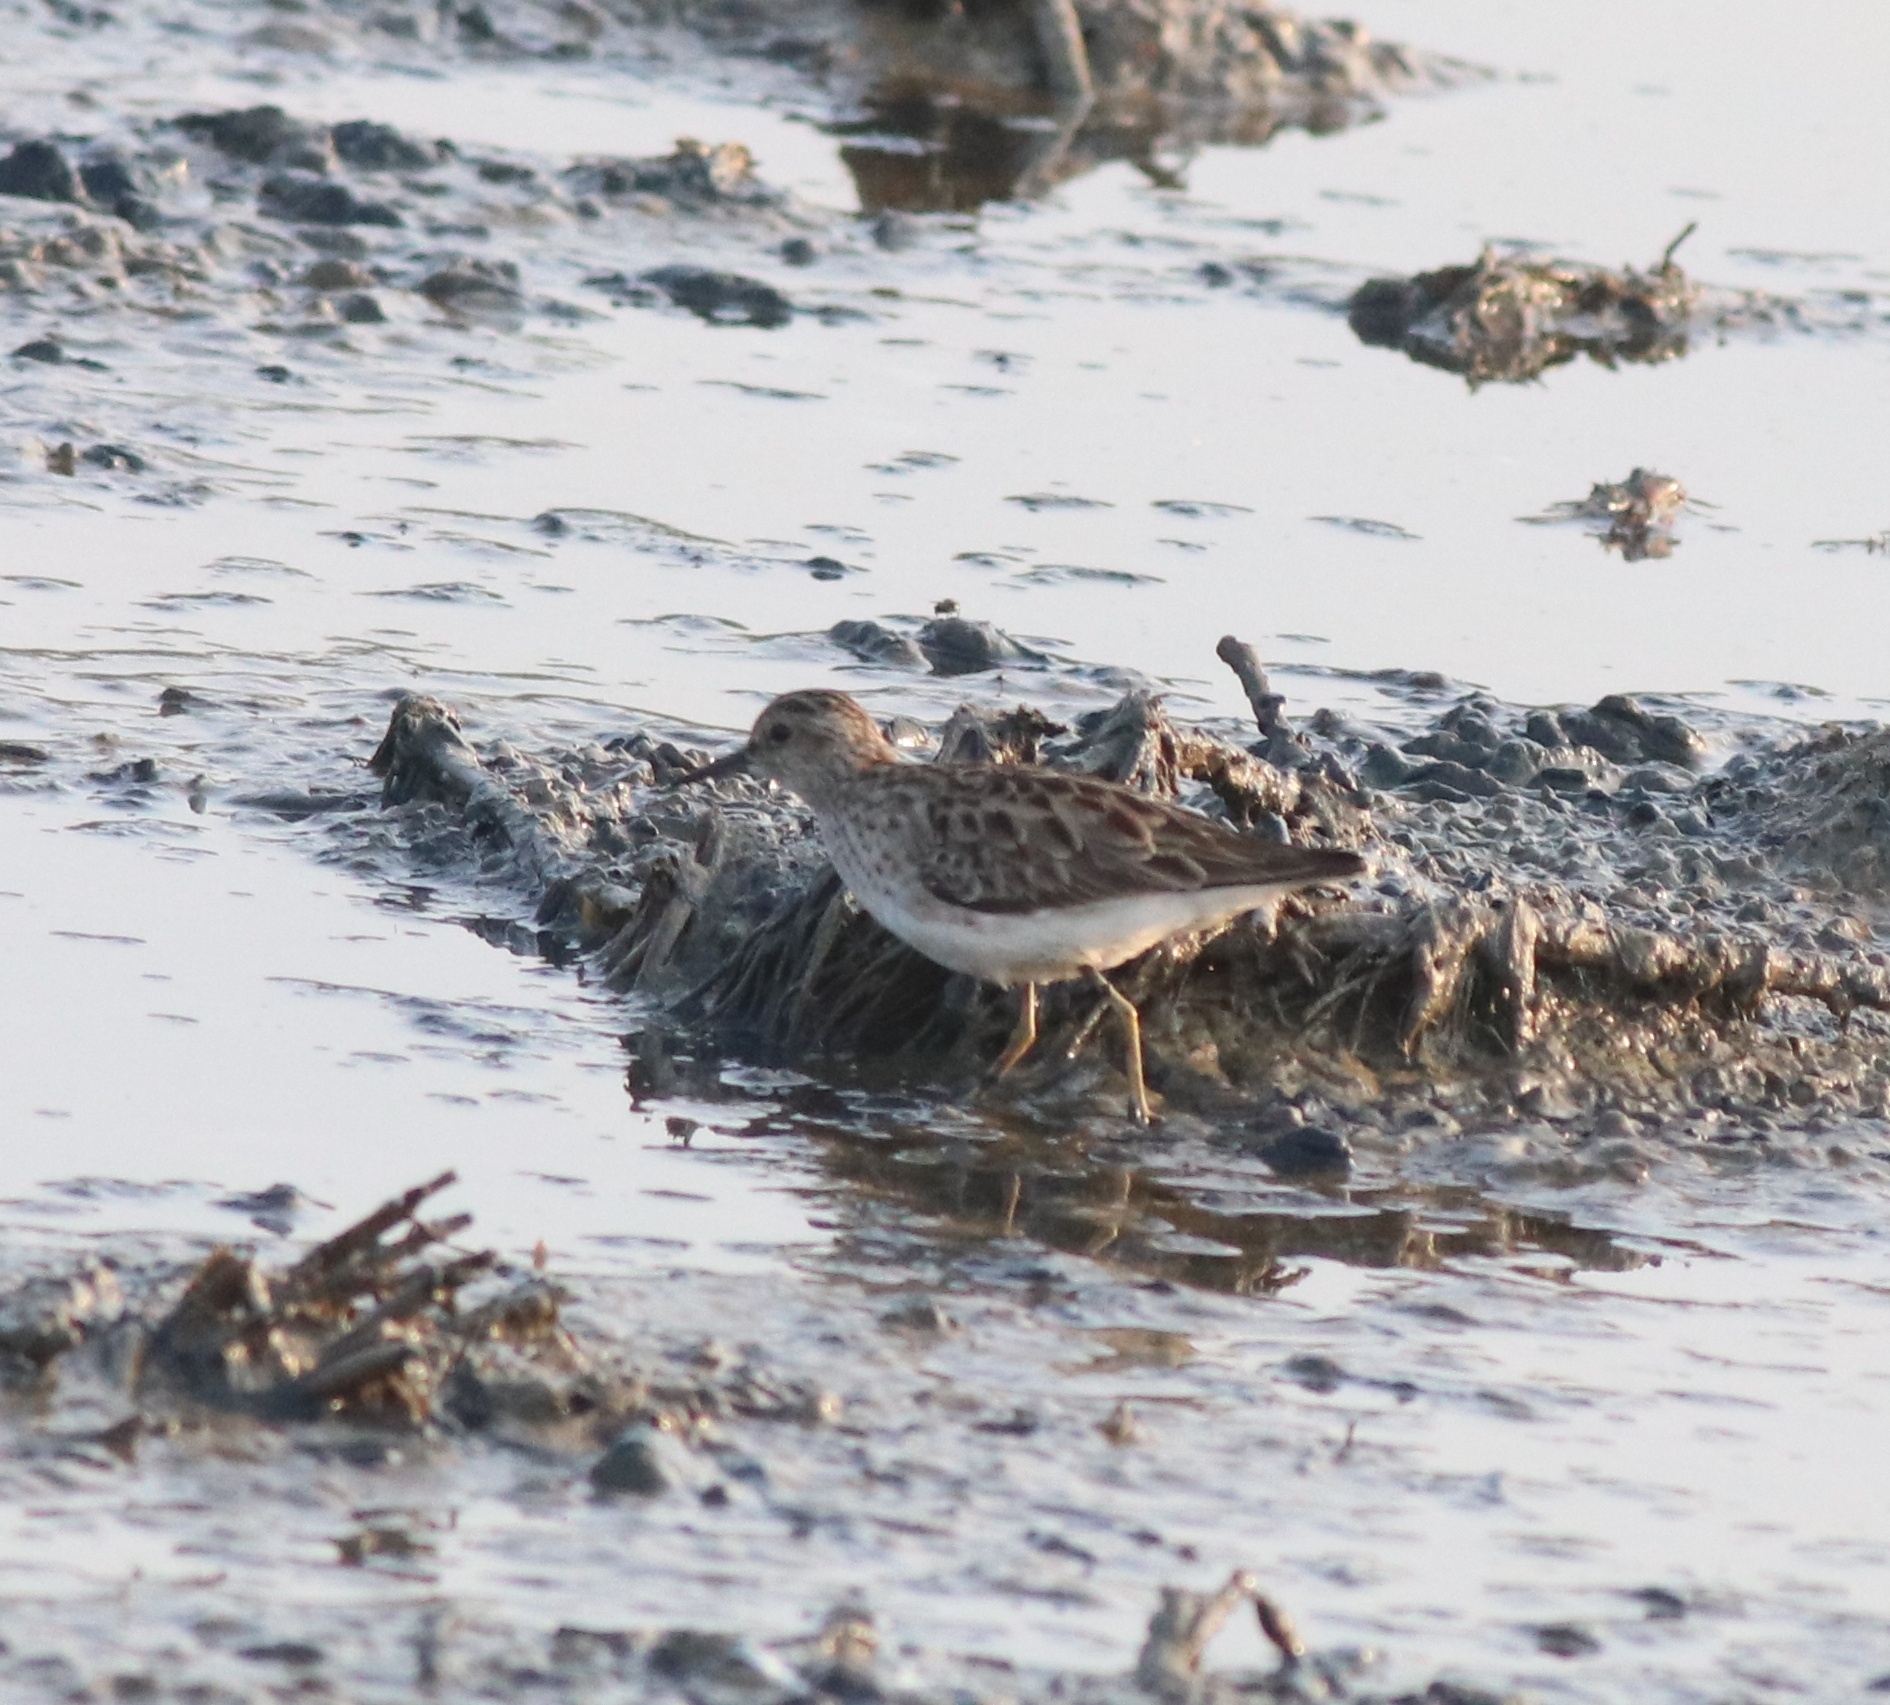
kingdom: Animalia
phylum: Chordata
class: Aves
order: Charadriiformes
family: Scolopacidae
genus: Calidris
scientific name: Calidris subminuta
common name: Long-toed stint
